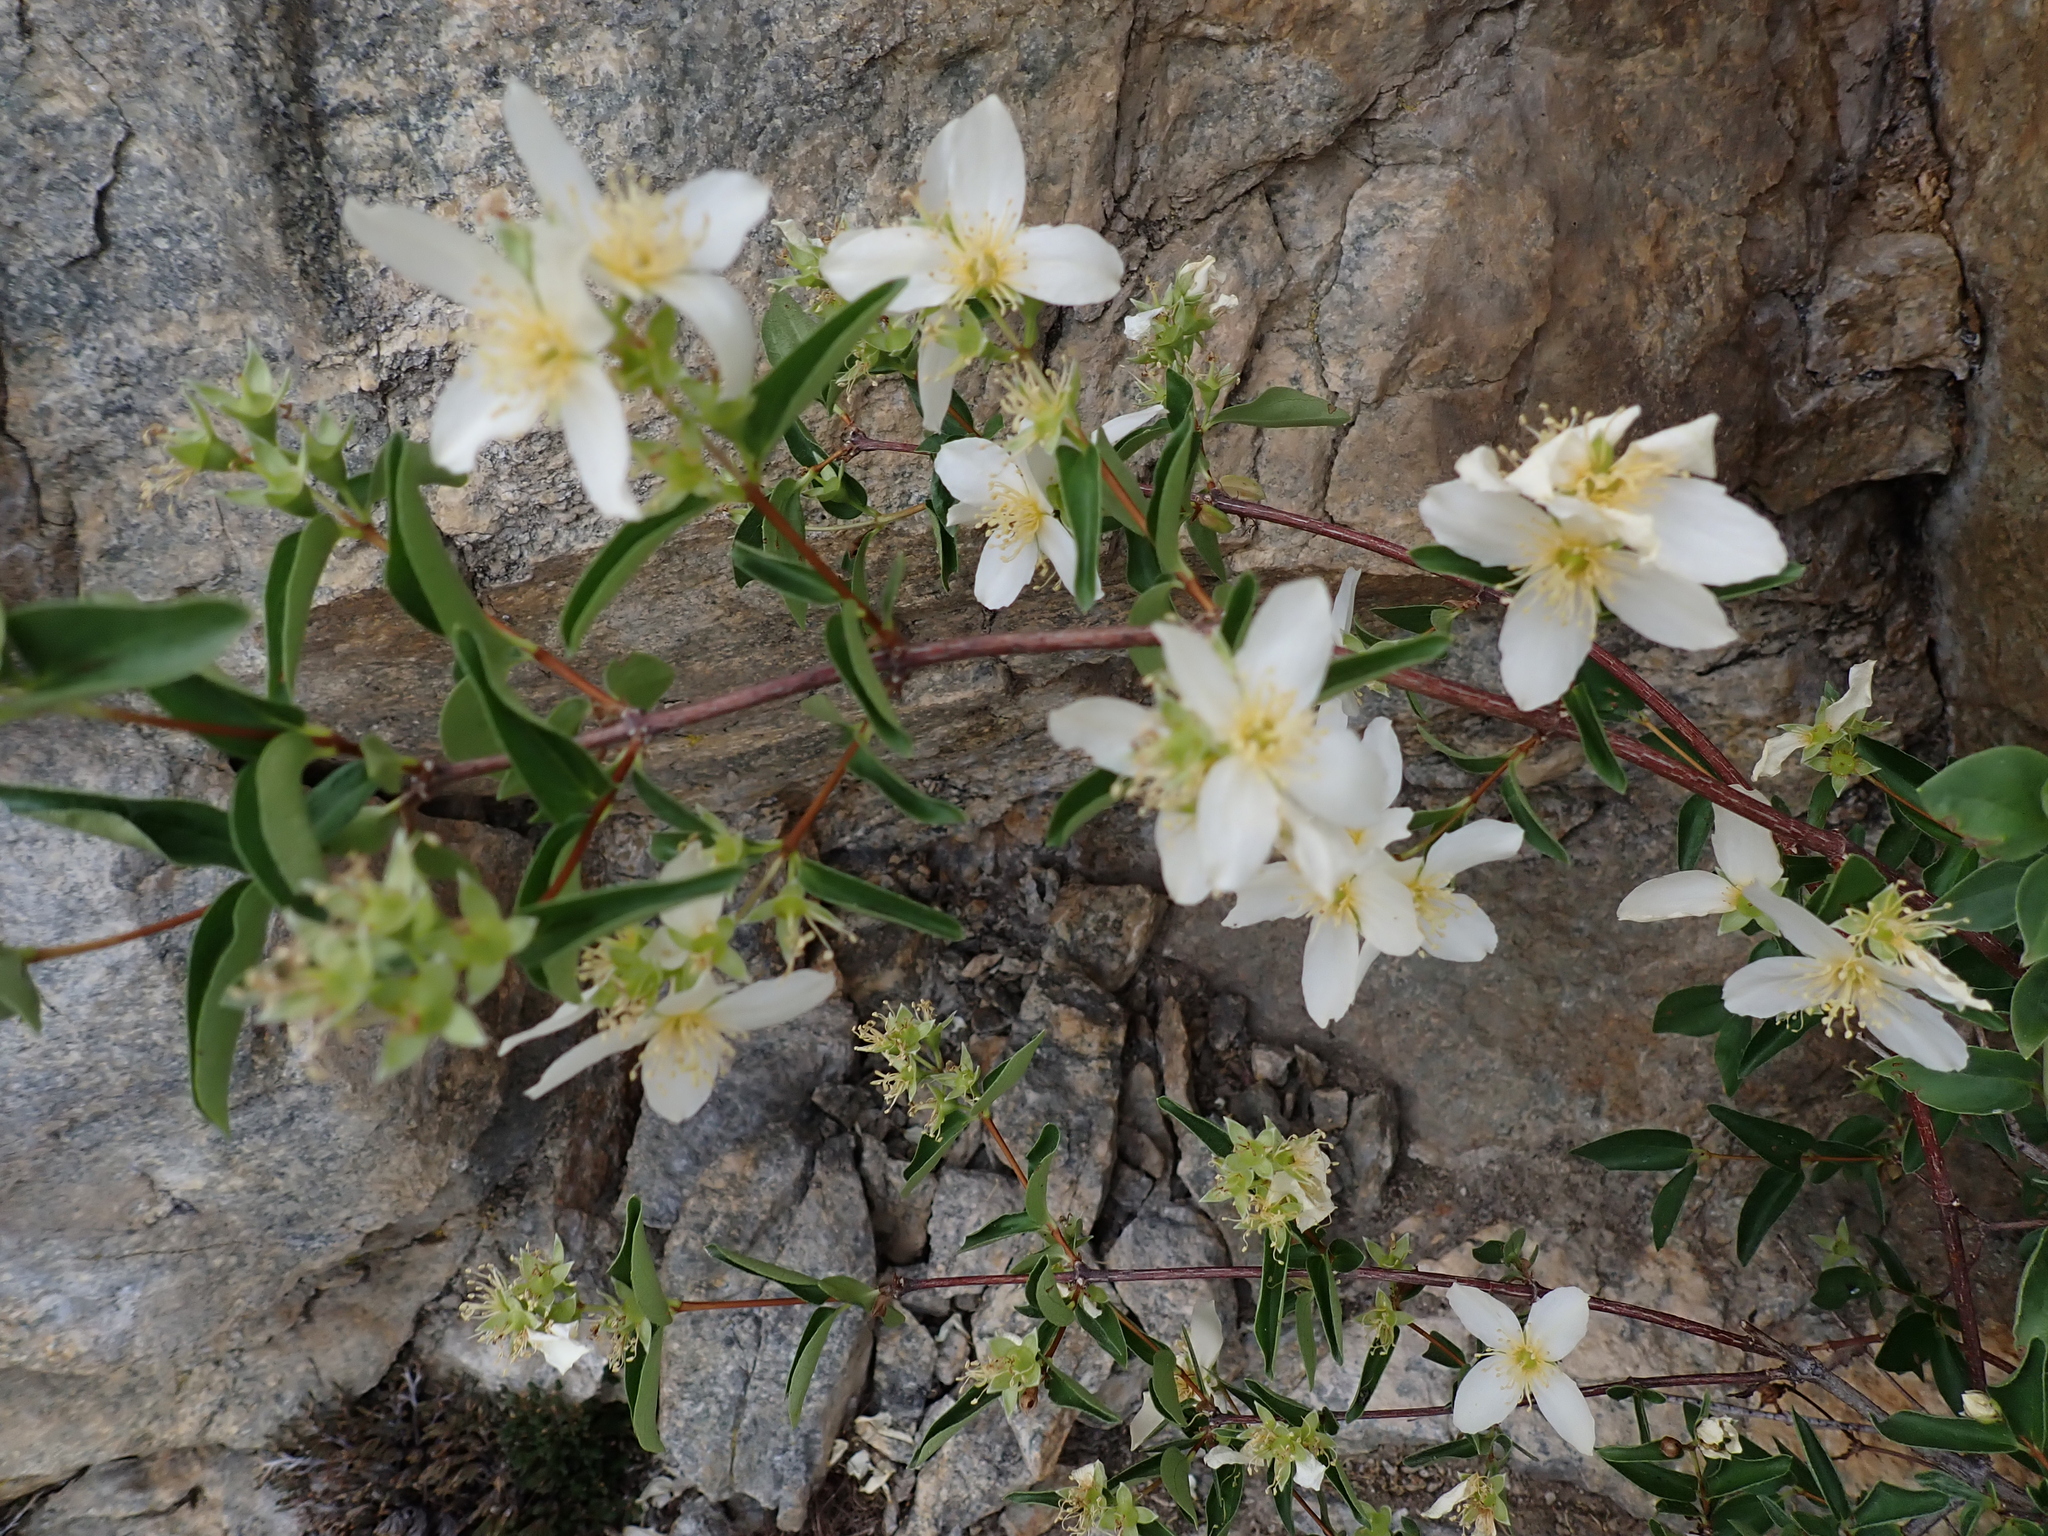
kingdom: Plantae
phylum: Tracheophyta
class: Magnoliopsida
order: Cornales
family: Hydrangeaceae
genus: Philadelphus
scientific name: Philadelphus lewisii
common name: Lewis's mock orange
